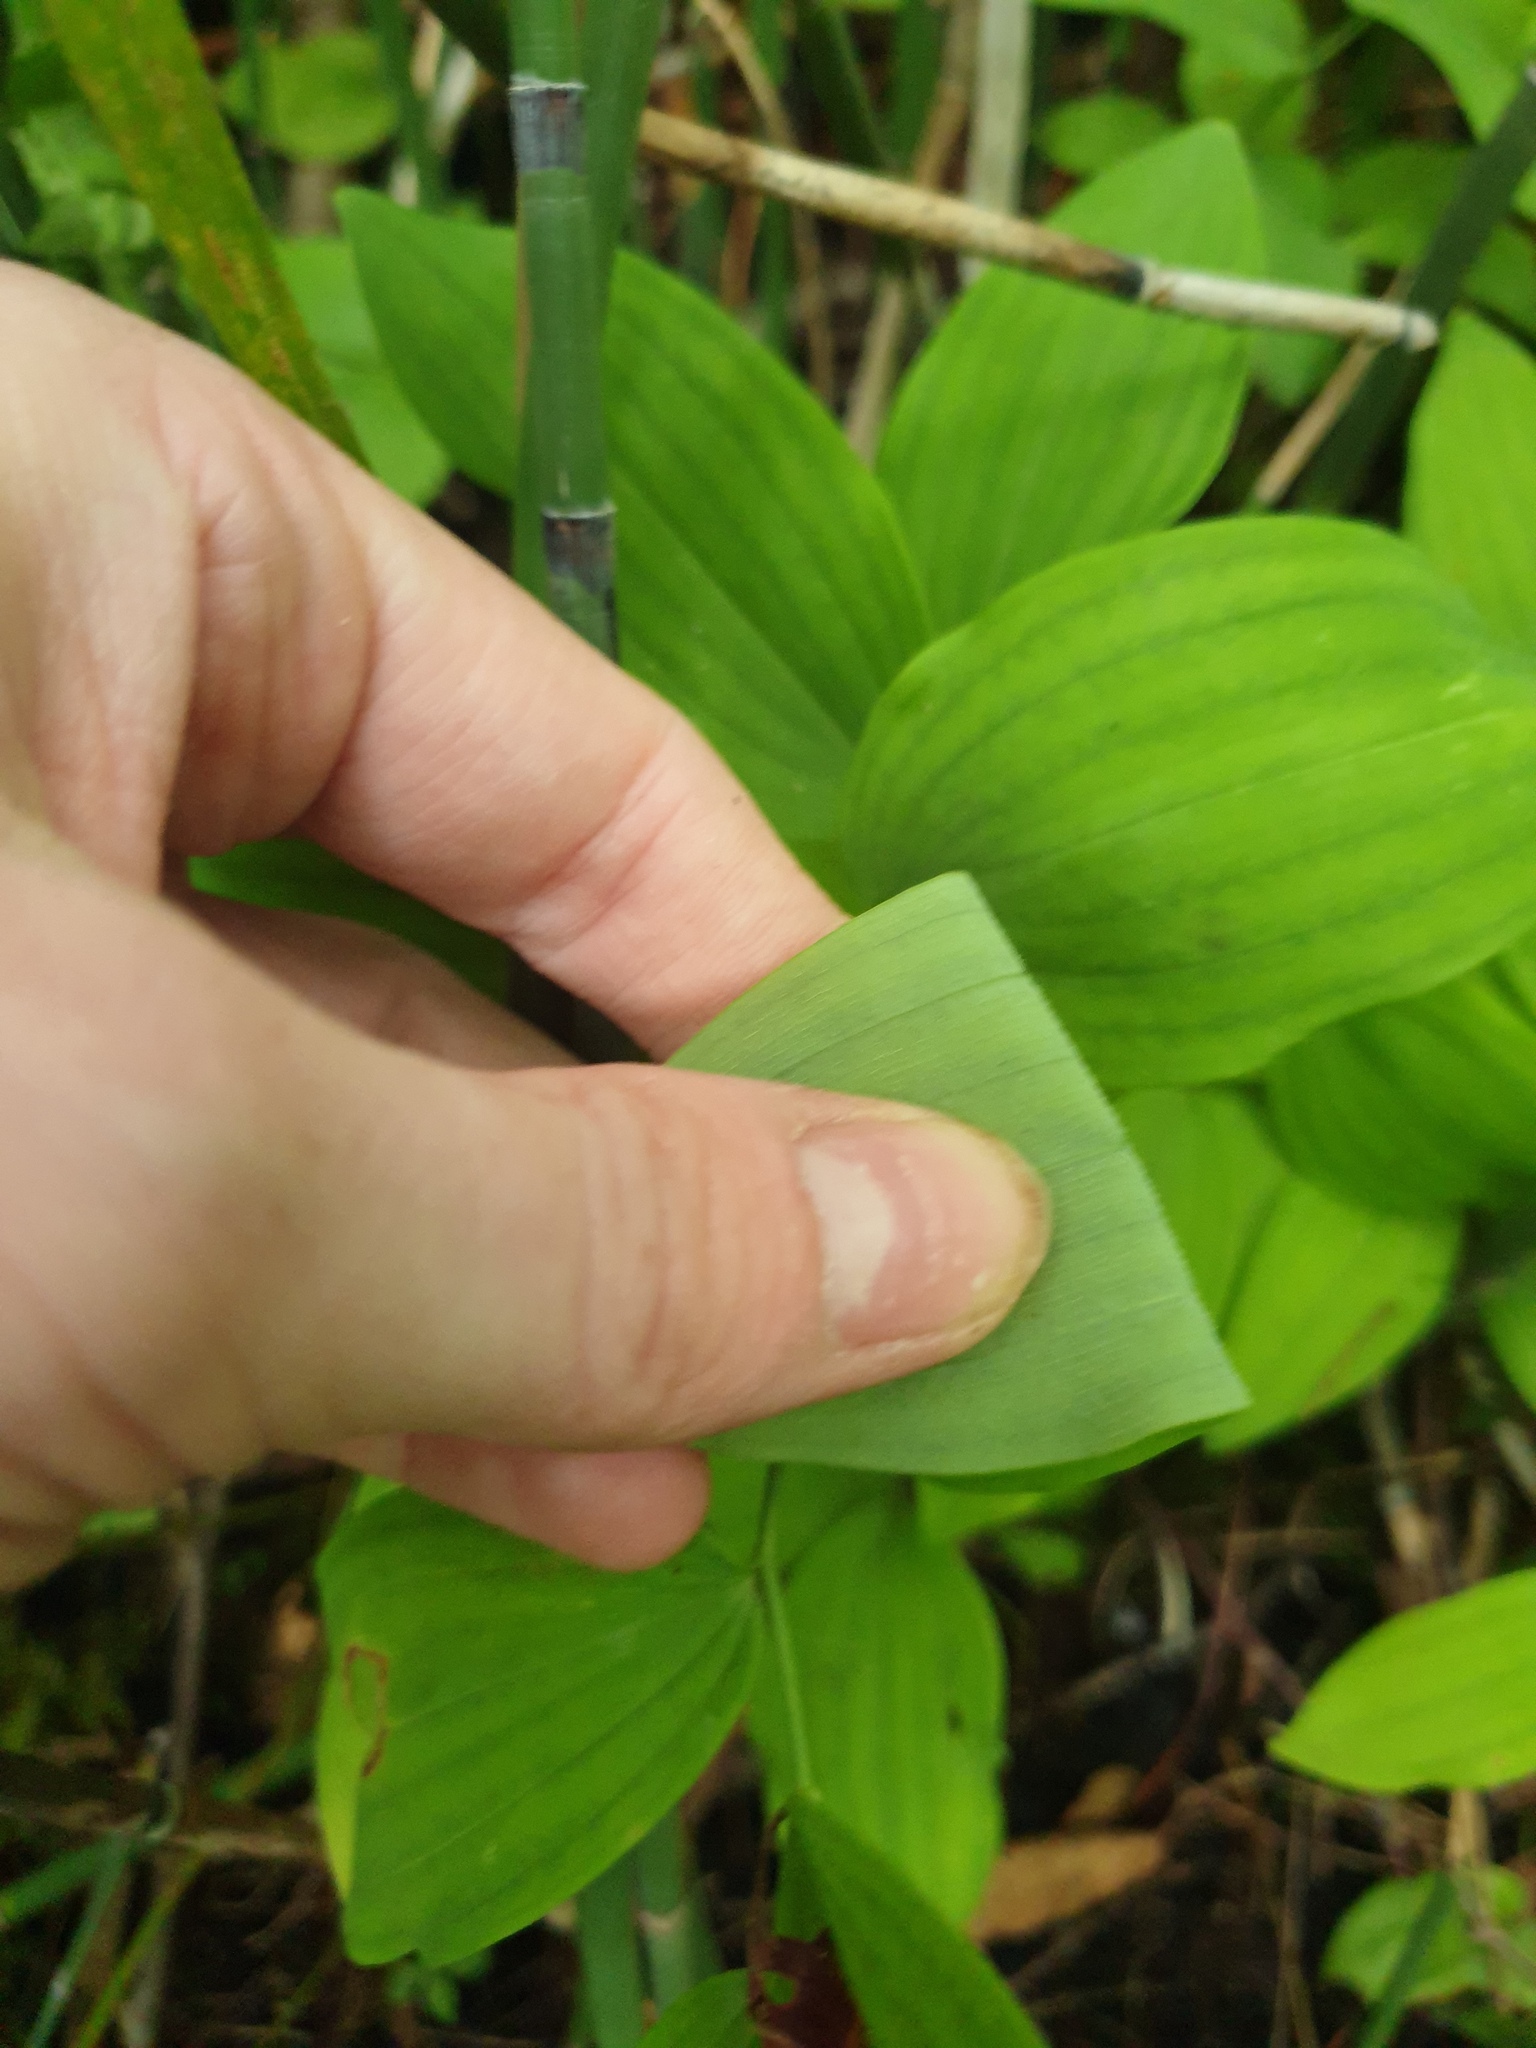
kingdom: Plantae
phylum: Tracheophyta
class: Liliopsida
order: Asparagales
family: Asparagaceae
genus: Polygonatum
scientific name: Polygonatum pubescens
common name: Downy solomon's seal
